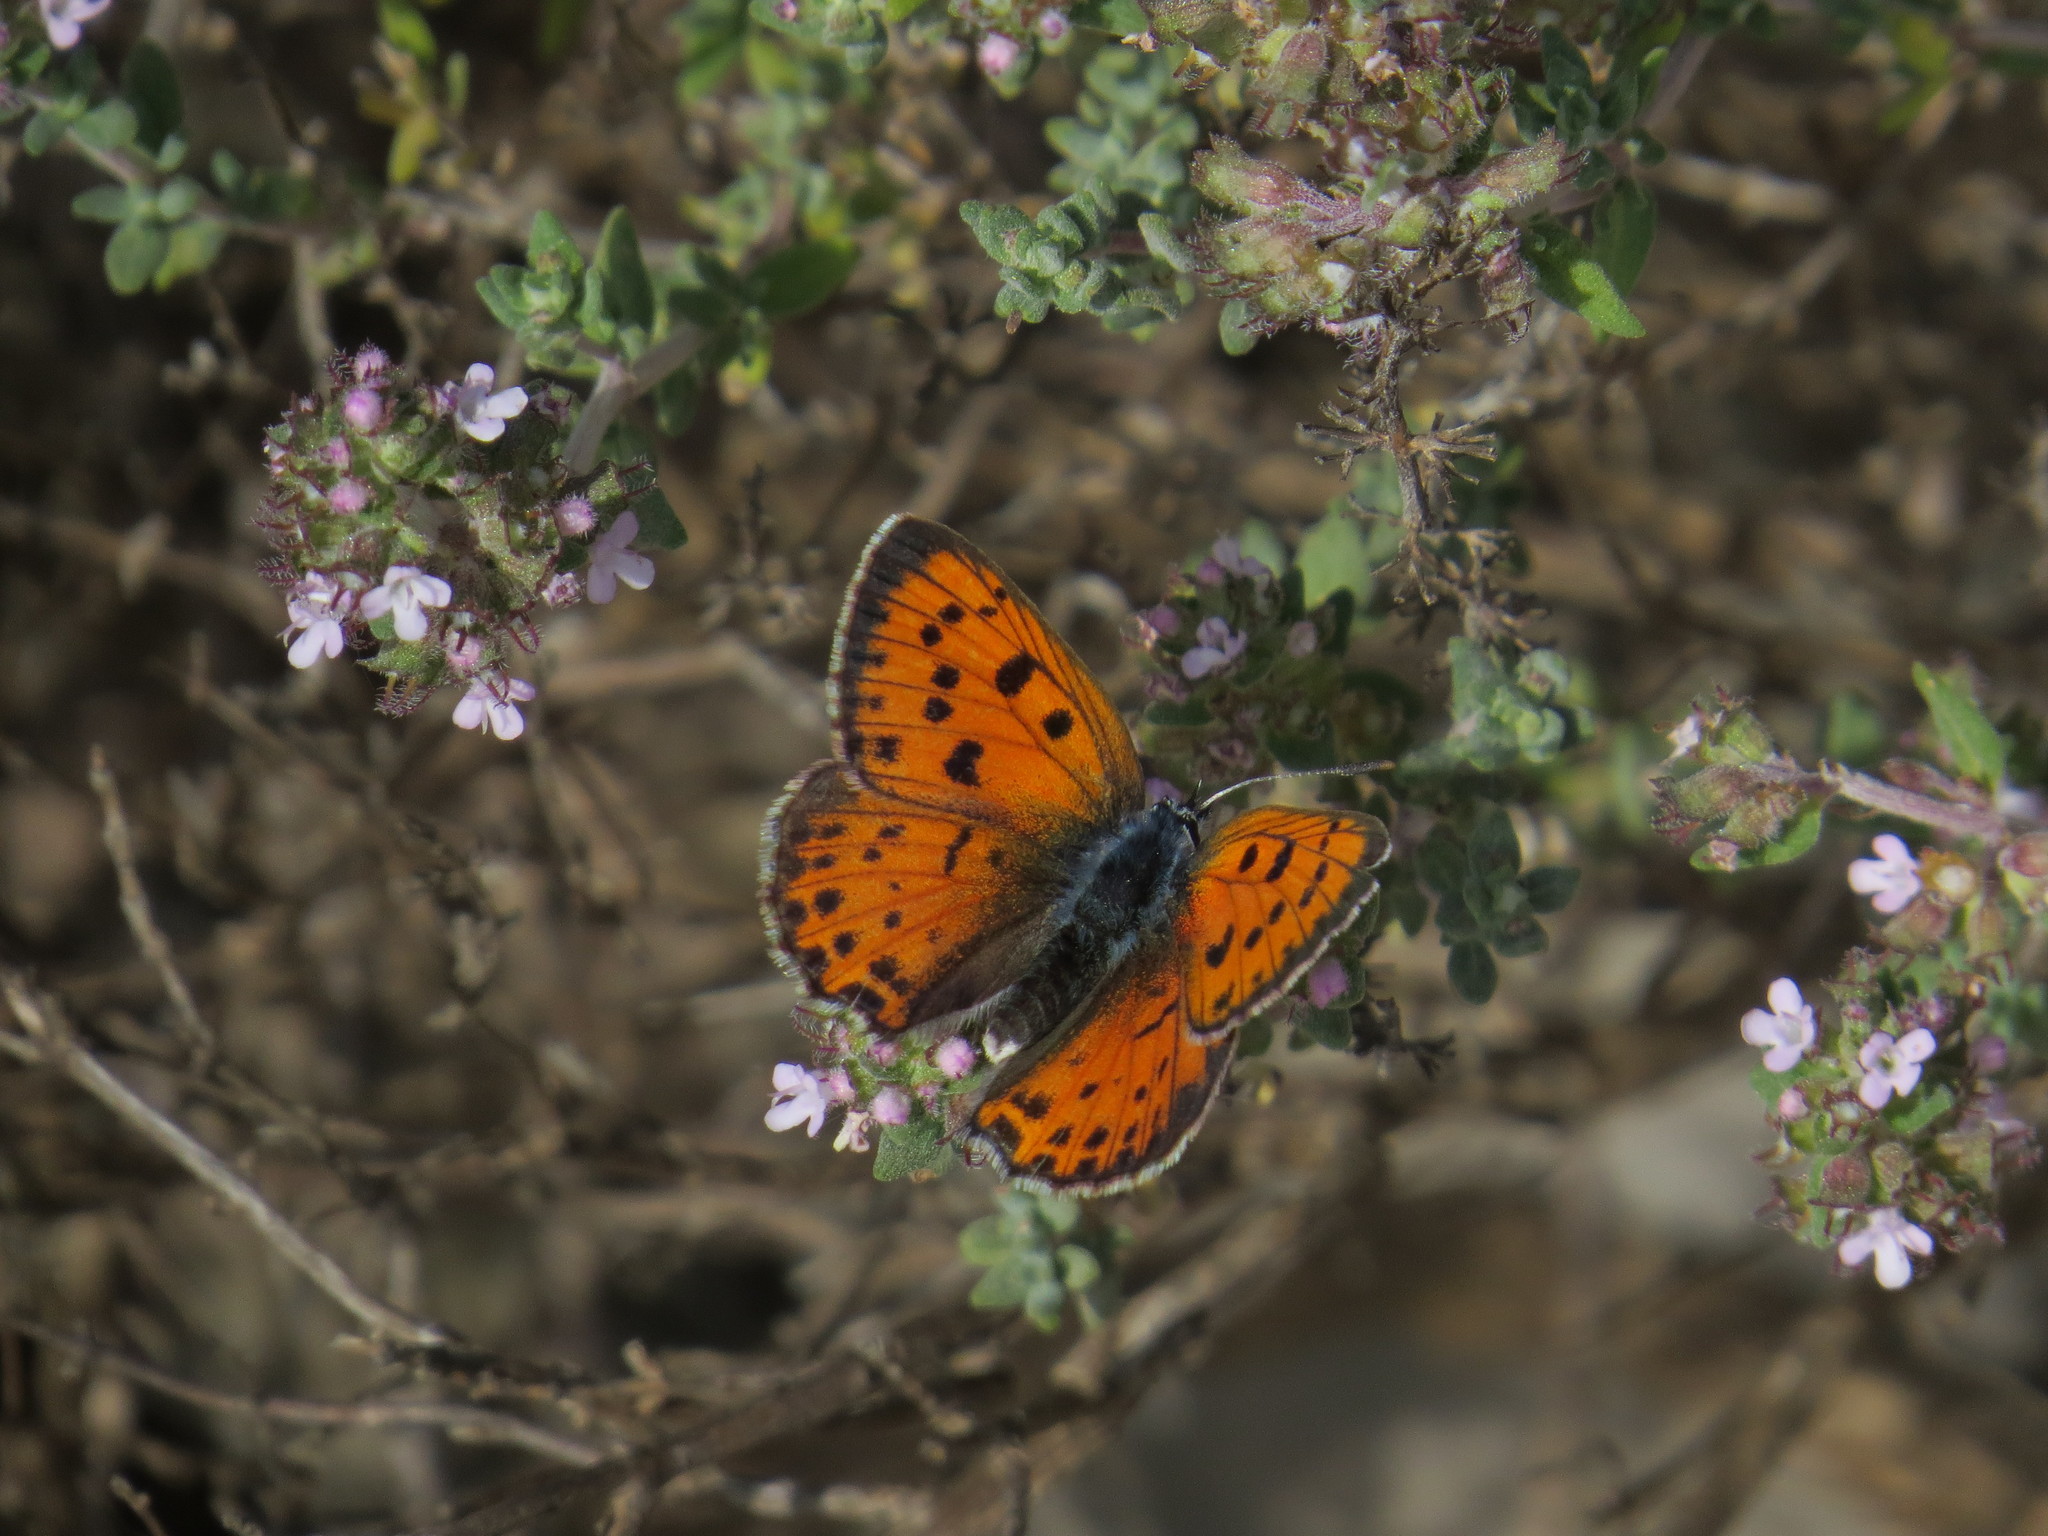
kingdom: Animalia
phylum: Arthropoda
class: Insecta
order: Lepidoptera
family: Lycaenidae
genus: Lycaena
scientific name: Lycaena alciphron
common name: Purple-shot copper
